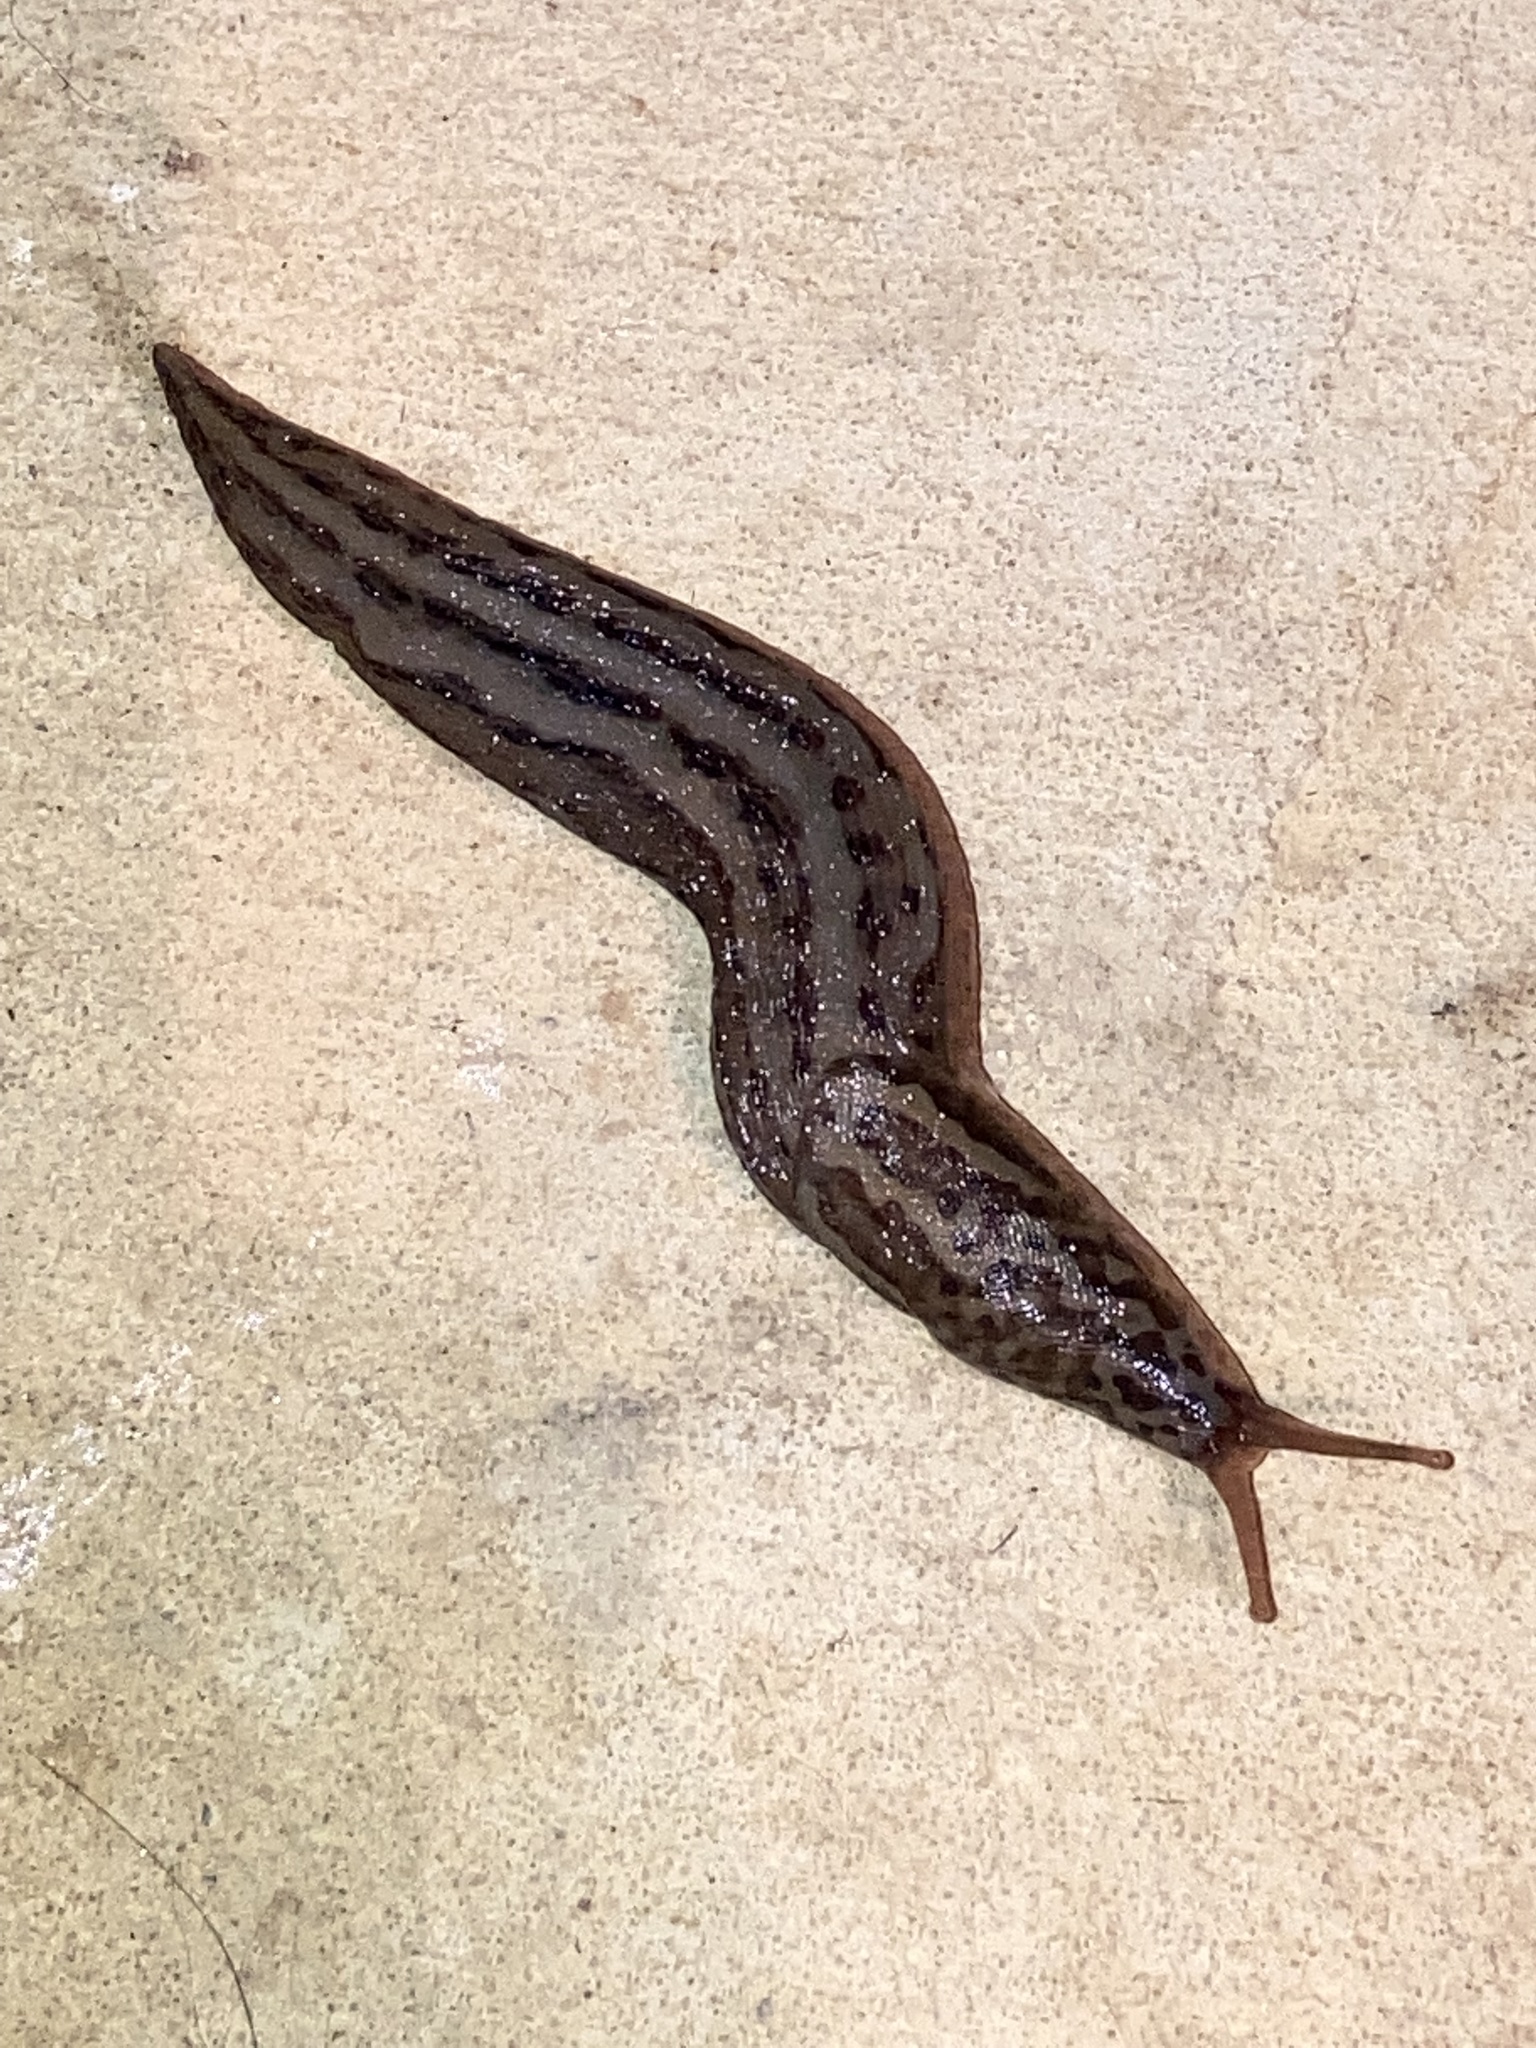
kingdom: Animalia
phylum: Mollusca
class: Gastropoda
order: Stylommatophora
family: Limacidae
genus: Limax
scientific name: Limax maximus
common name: Great grey slug
